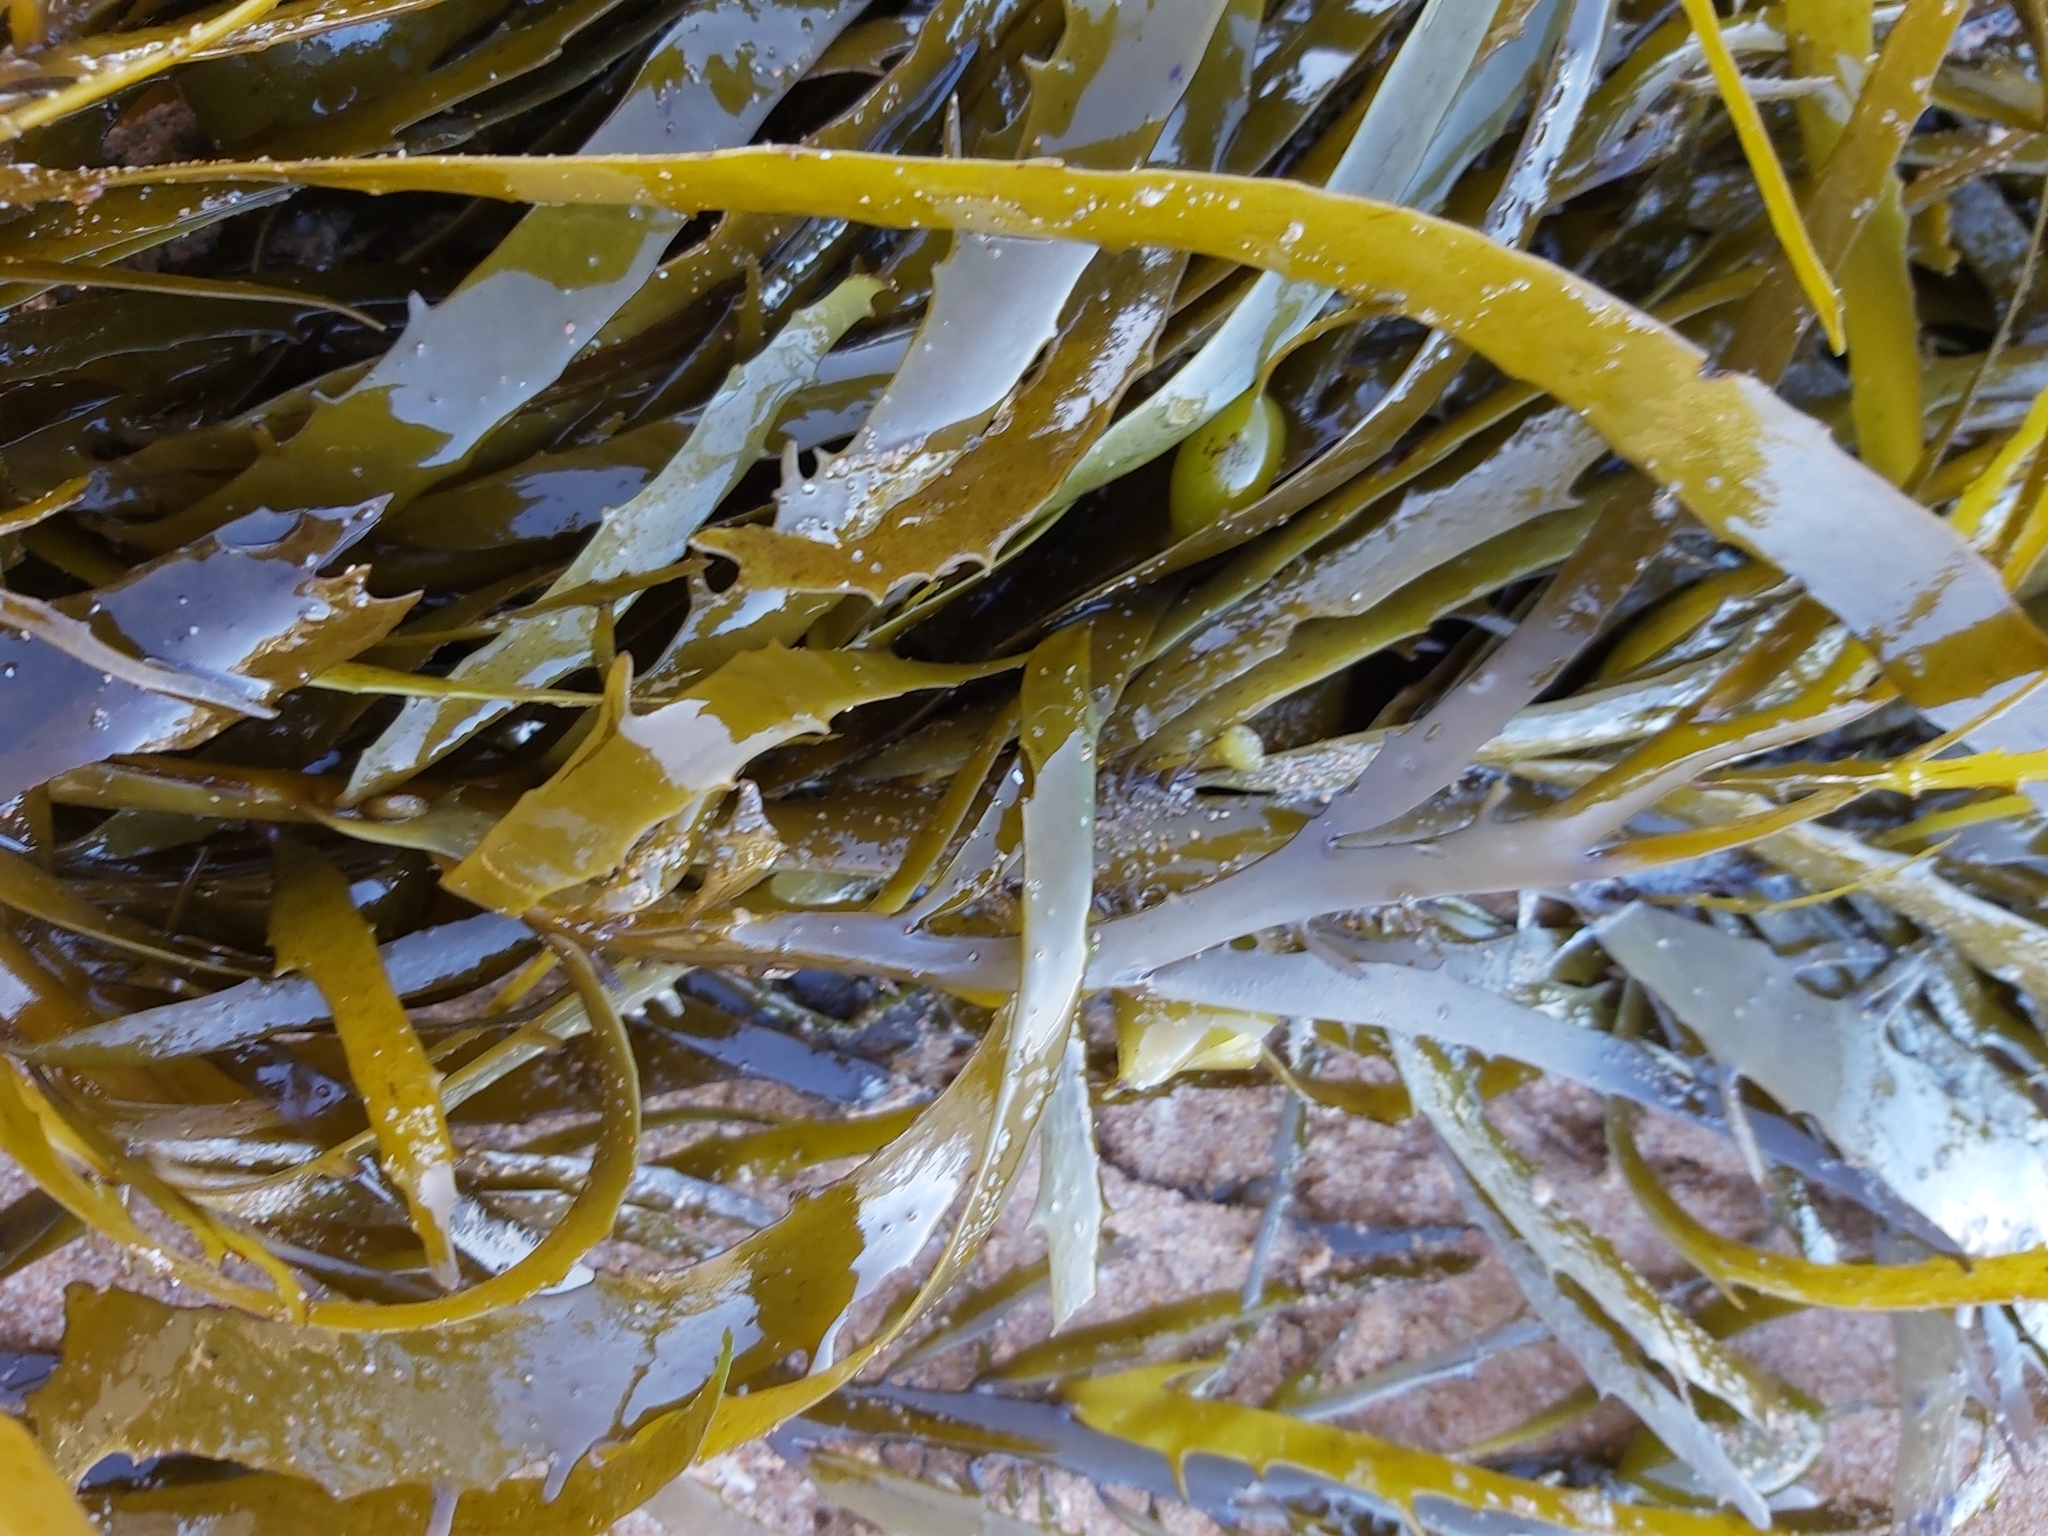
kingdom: Chromista
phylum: Ochrophyta
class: Phaeophyceae
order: Fucales
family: Seirococcaceae
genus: Phyllospora
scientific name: Phyllospora
